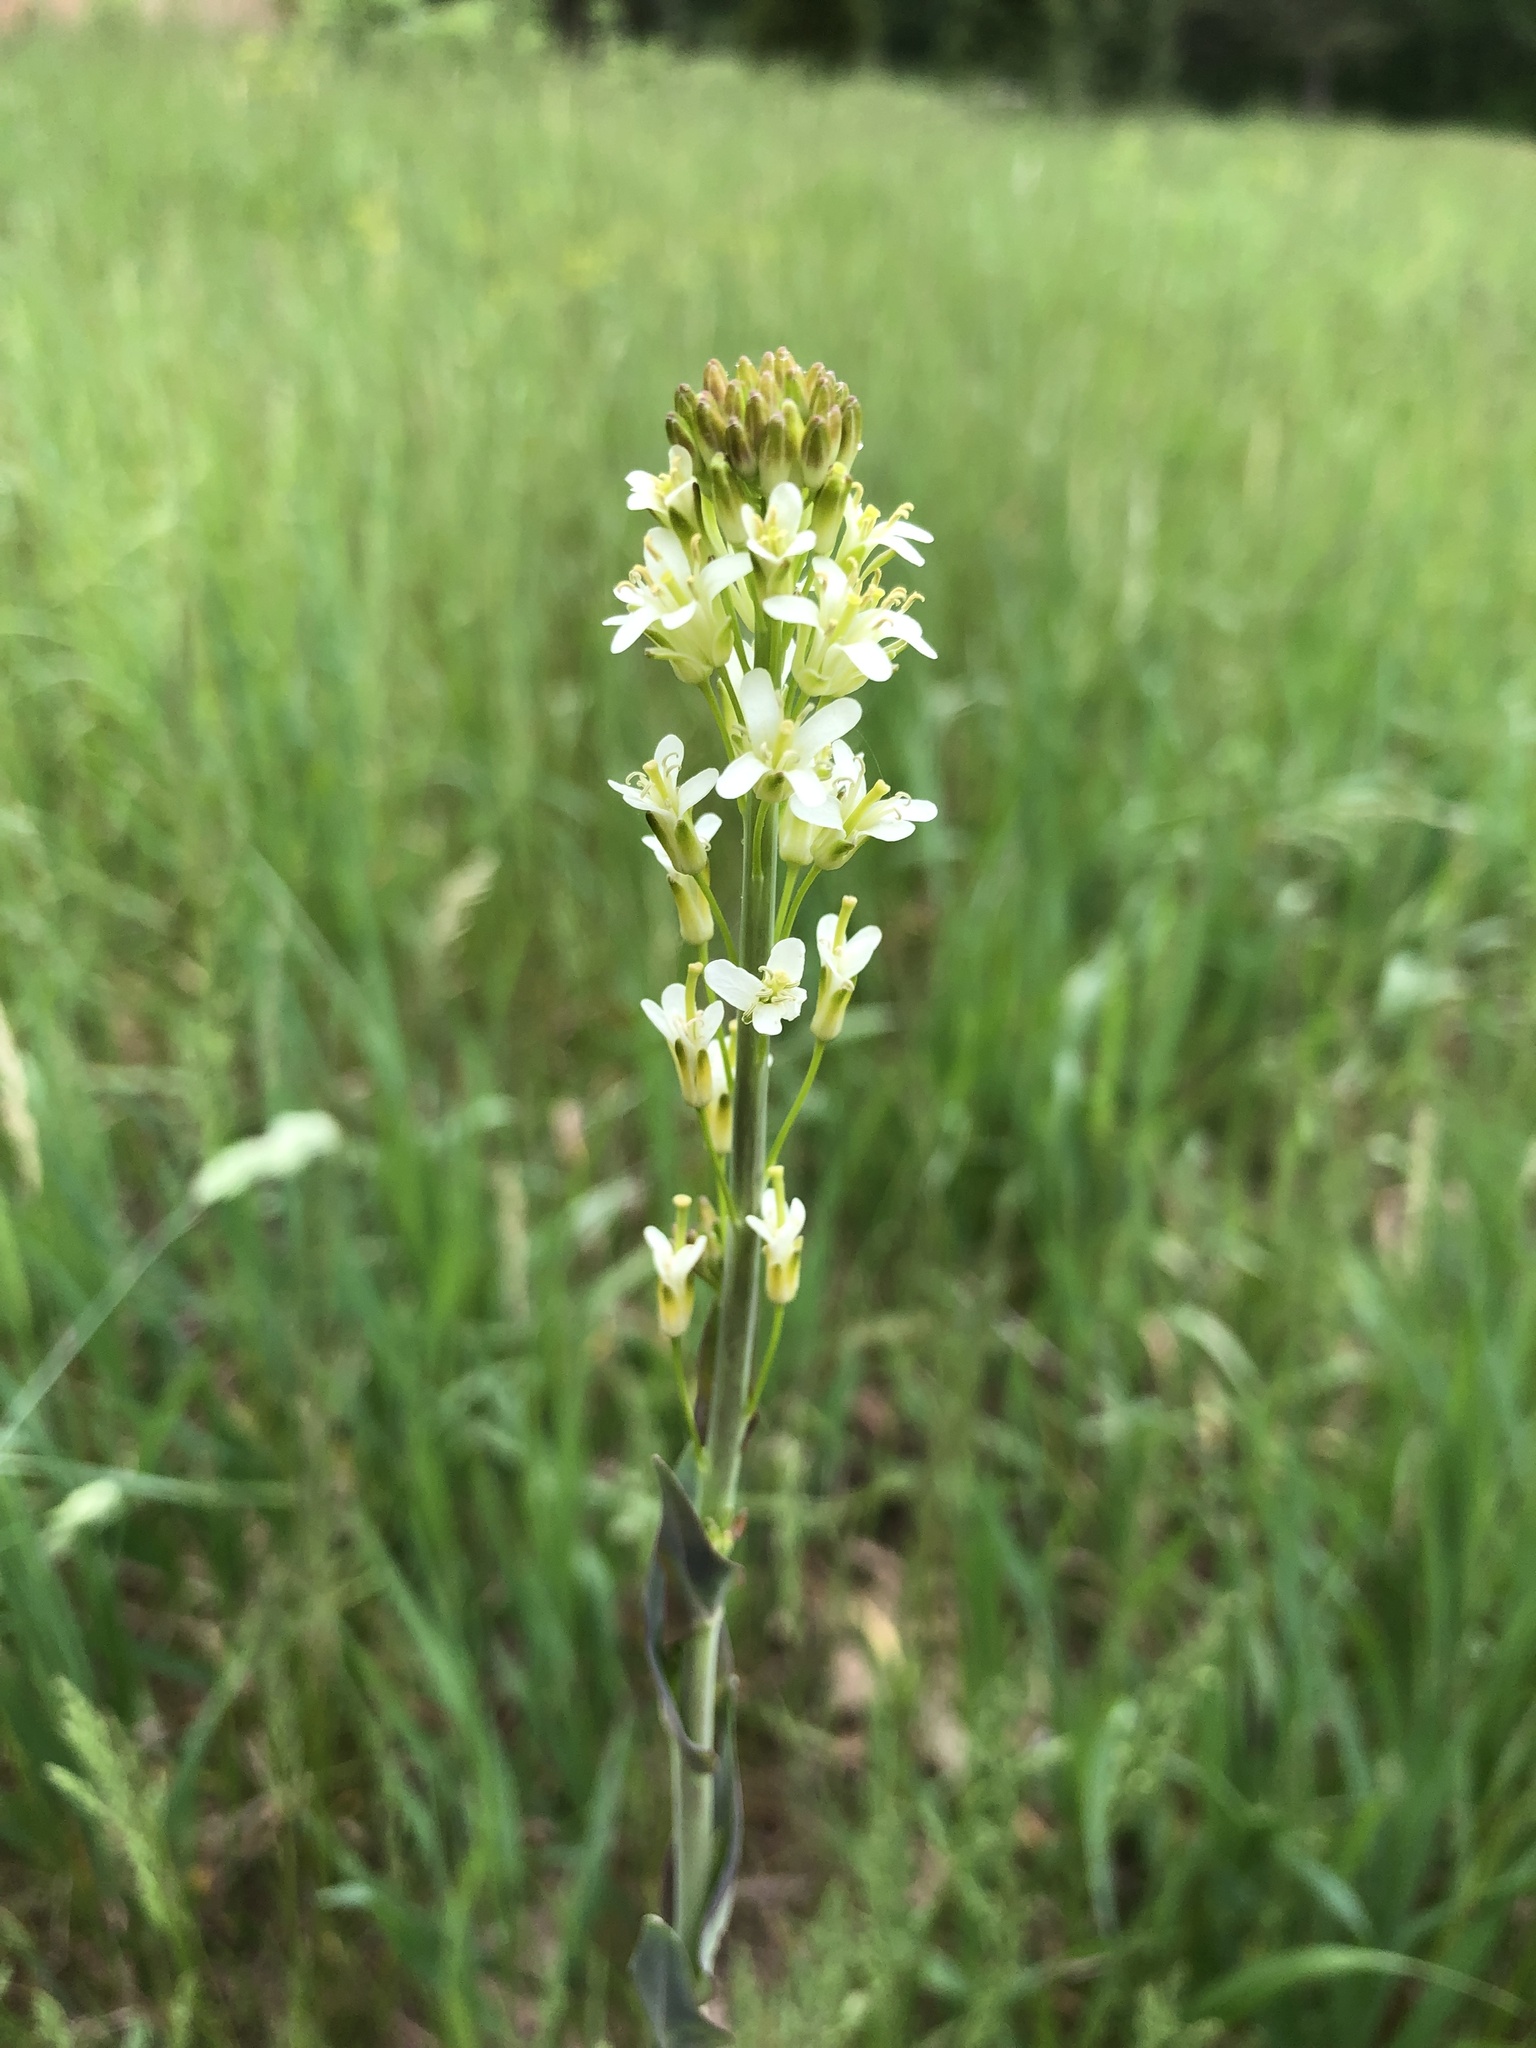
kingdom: Plantae
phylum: Tracheophyta
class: Magnoliopsida
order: Brassicales
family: Brassicaceae
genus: Turritis
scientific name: Turritis glabra
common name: Tower rockcress
